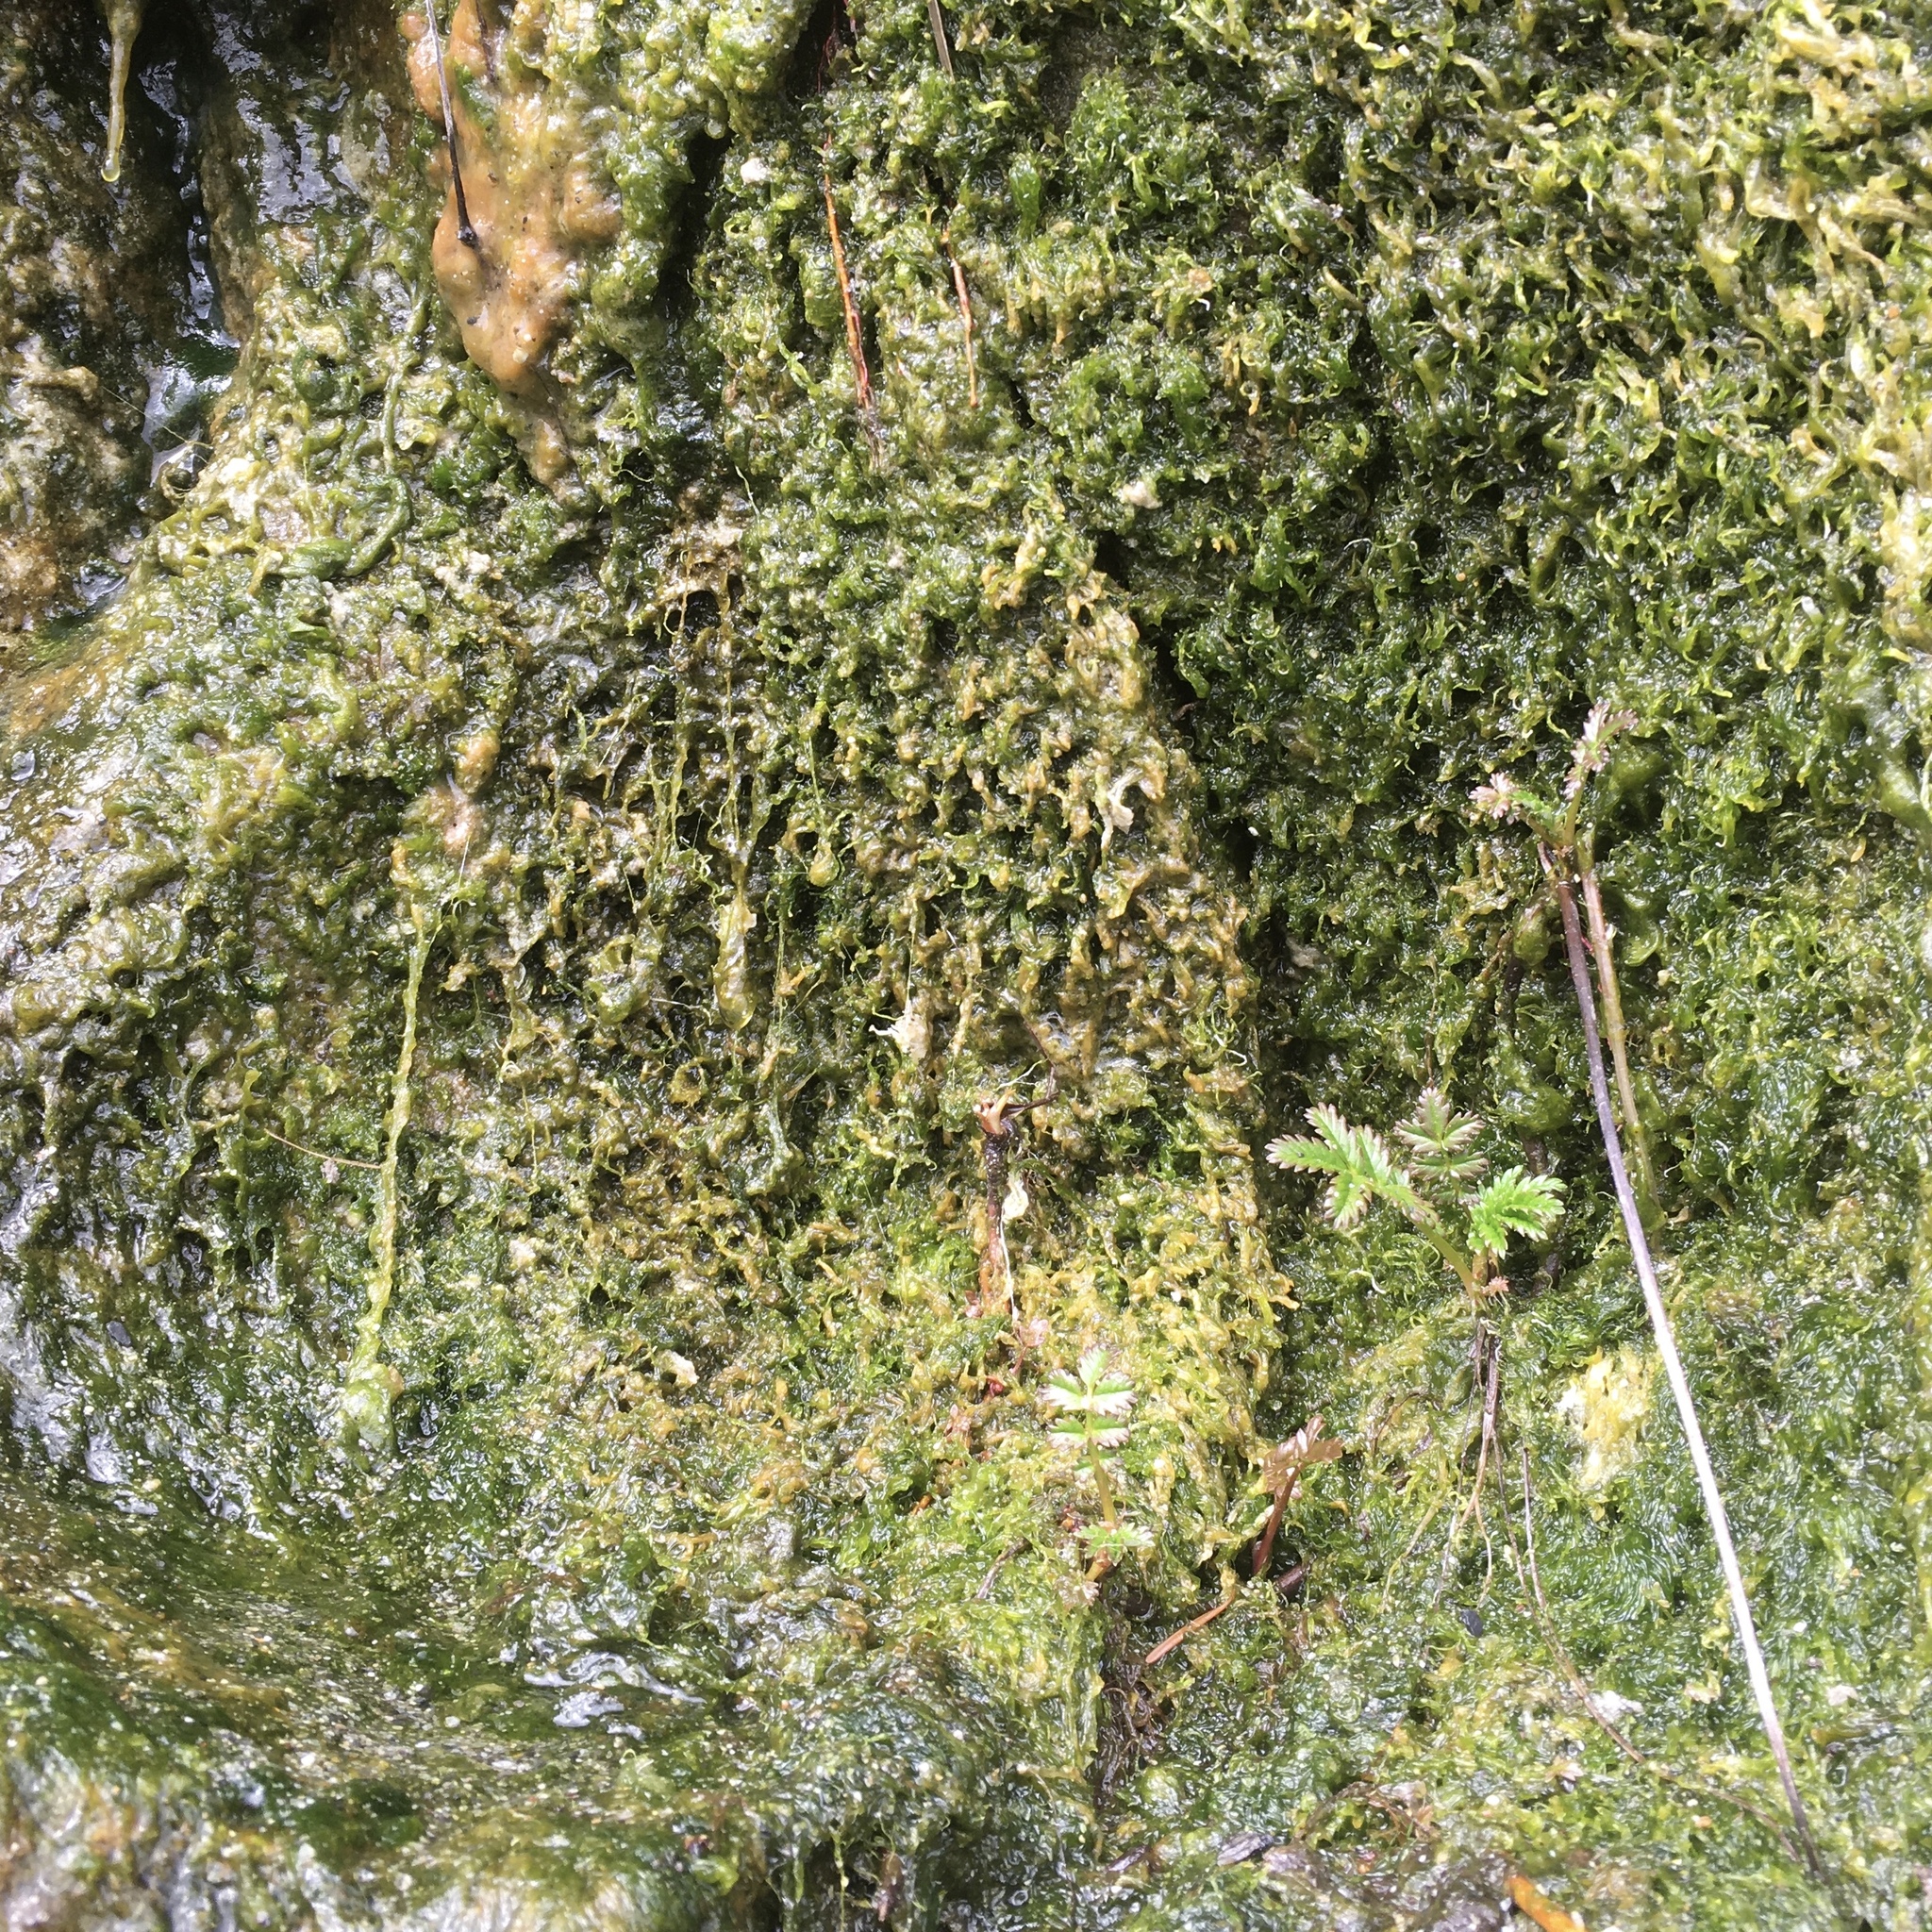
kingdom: Plantae
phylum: Tracheophyta
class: Magnoliopsida
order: Rosales
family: Rosaceae
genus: Argentina
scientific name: Argentina anserina
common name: Common silverweed
